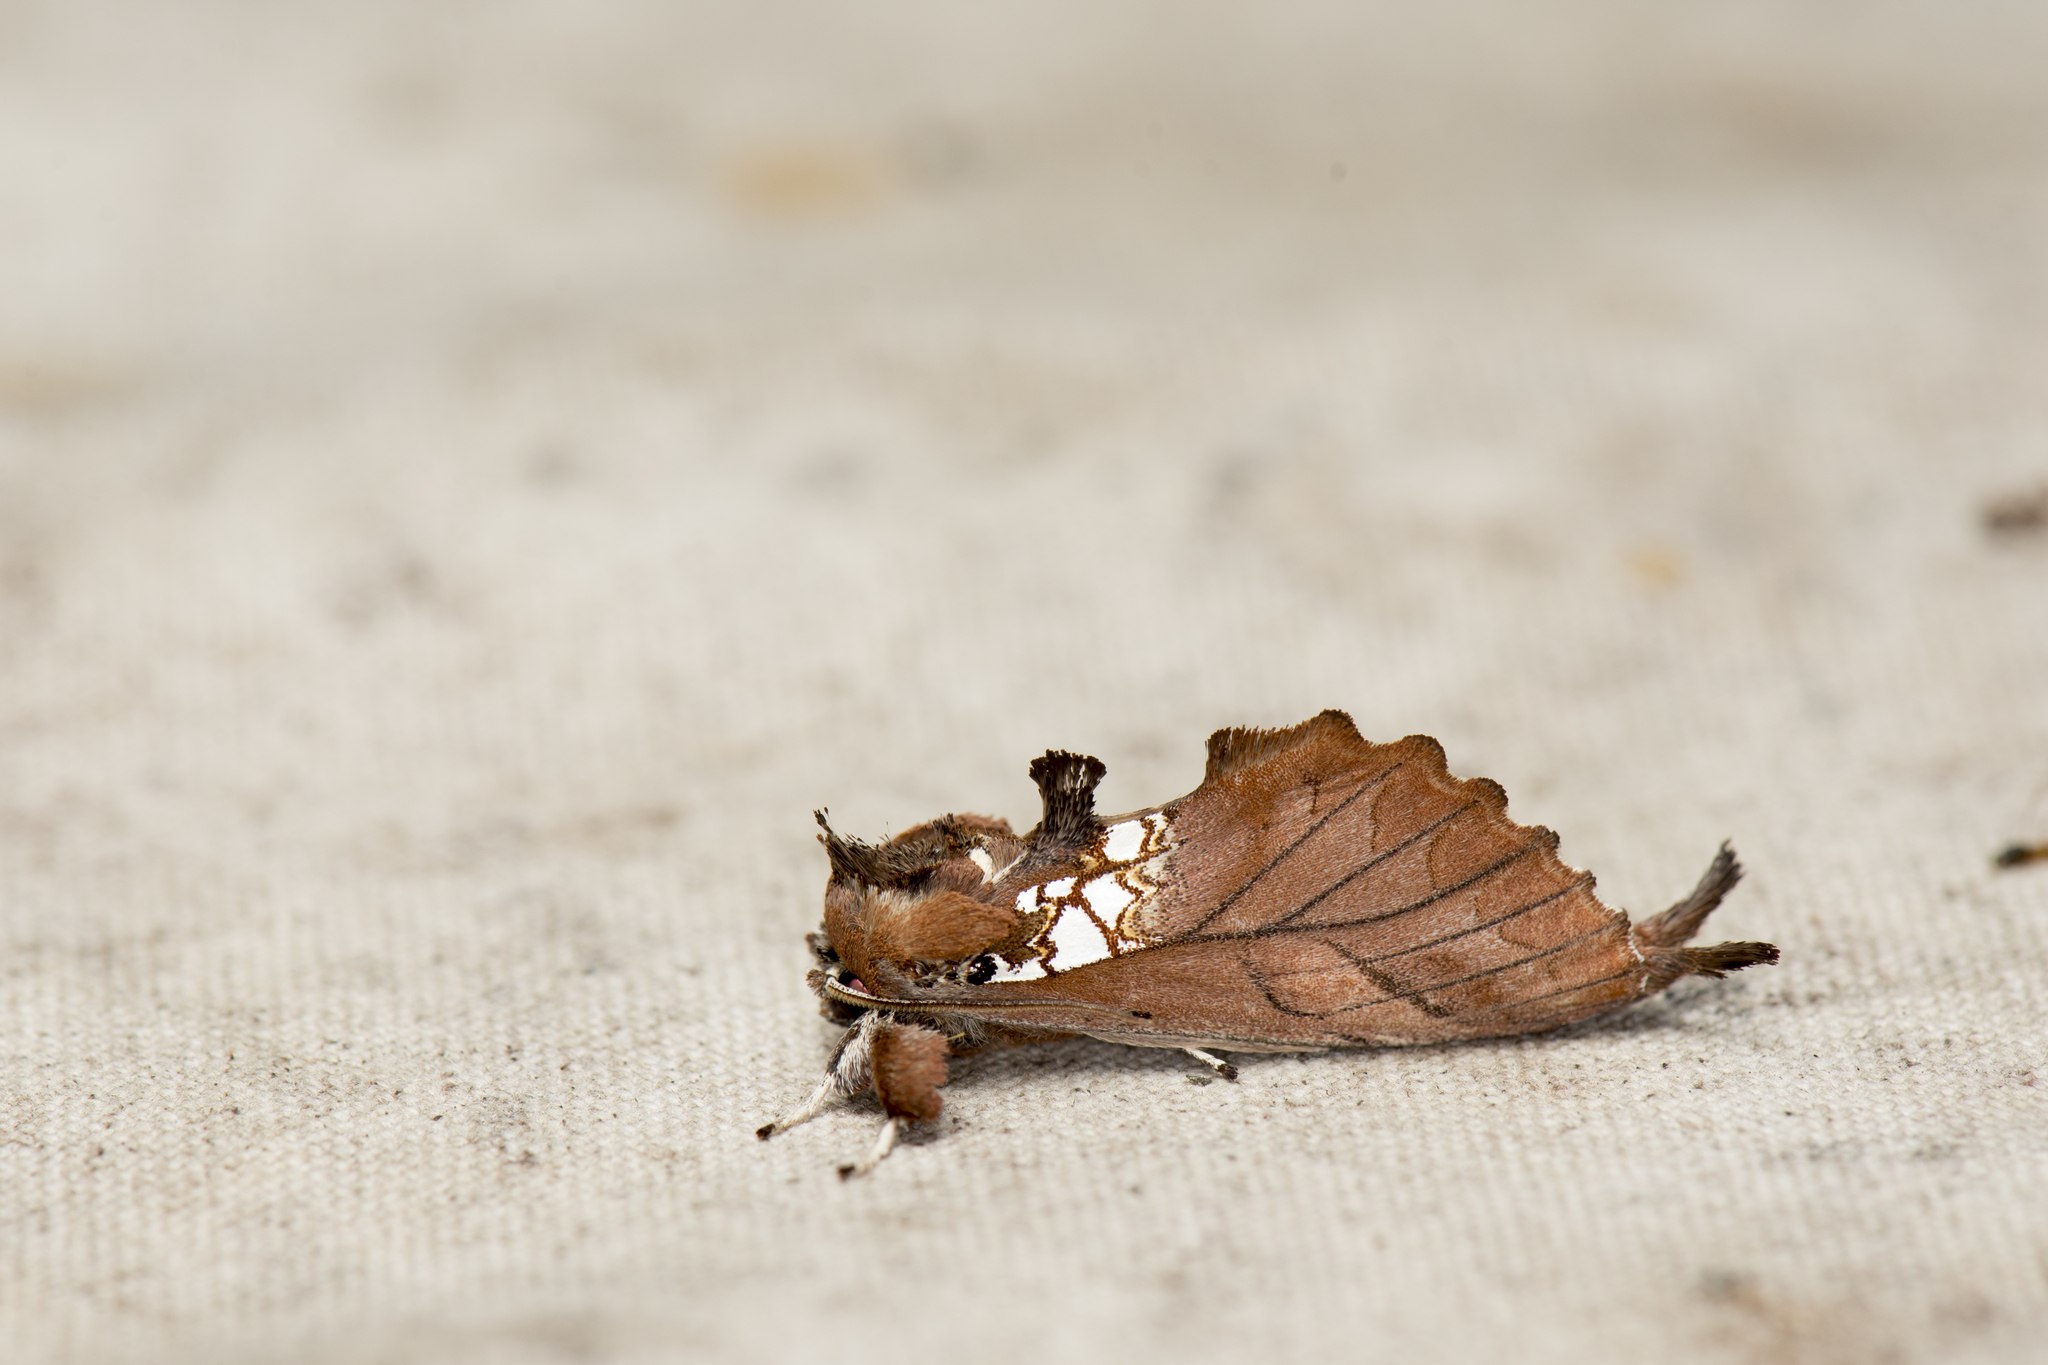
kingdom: Animalia
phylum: Arthropoda
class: Insecta
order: Lepidoptera
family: Notodontidae
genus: Spatalia
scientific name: Spatalia dives
